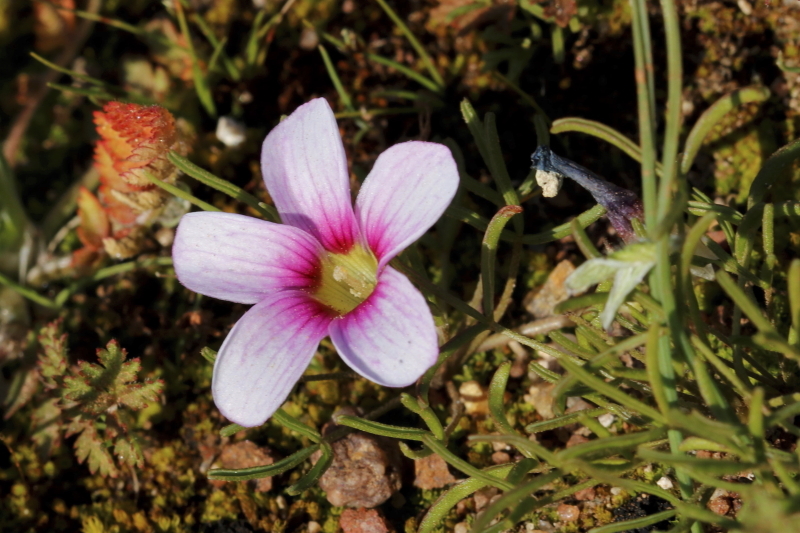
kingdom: Plantae
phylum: Tracheophyta
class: Magnoliopsida
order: Oxalidales
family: Oxalidaceae
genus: Oxalis
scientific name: Oxalis pusilla
